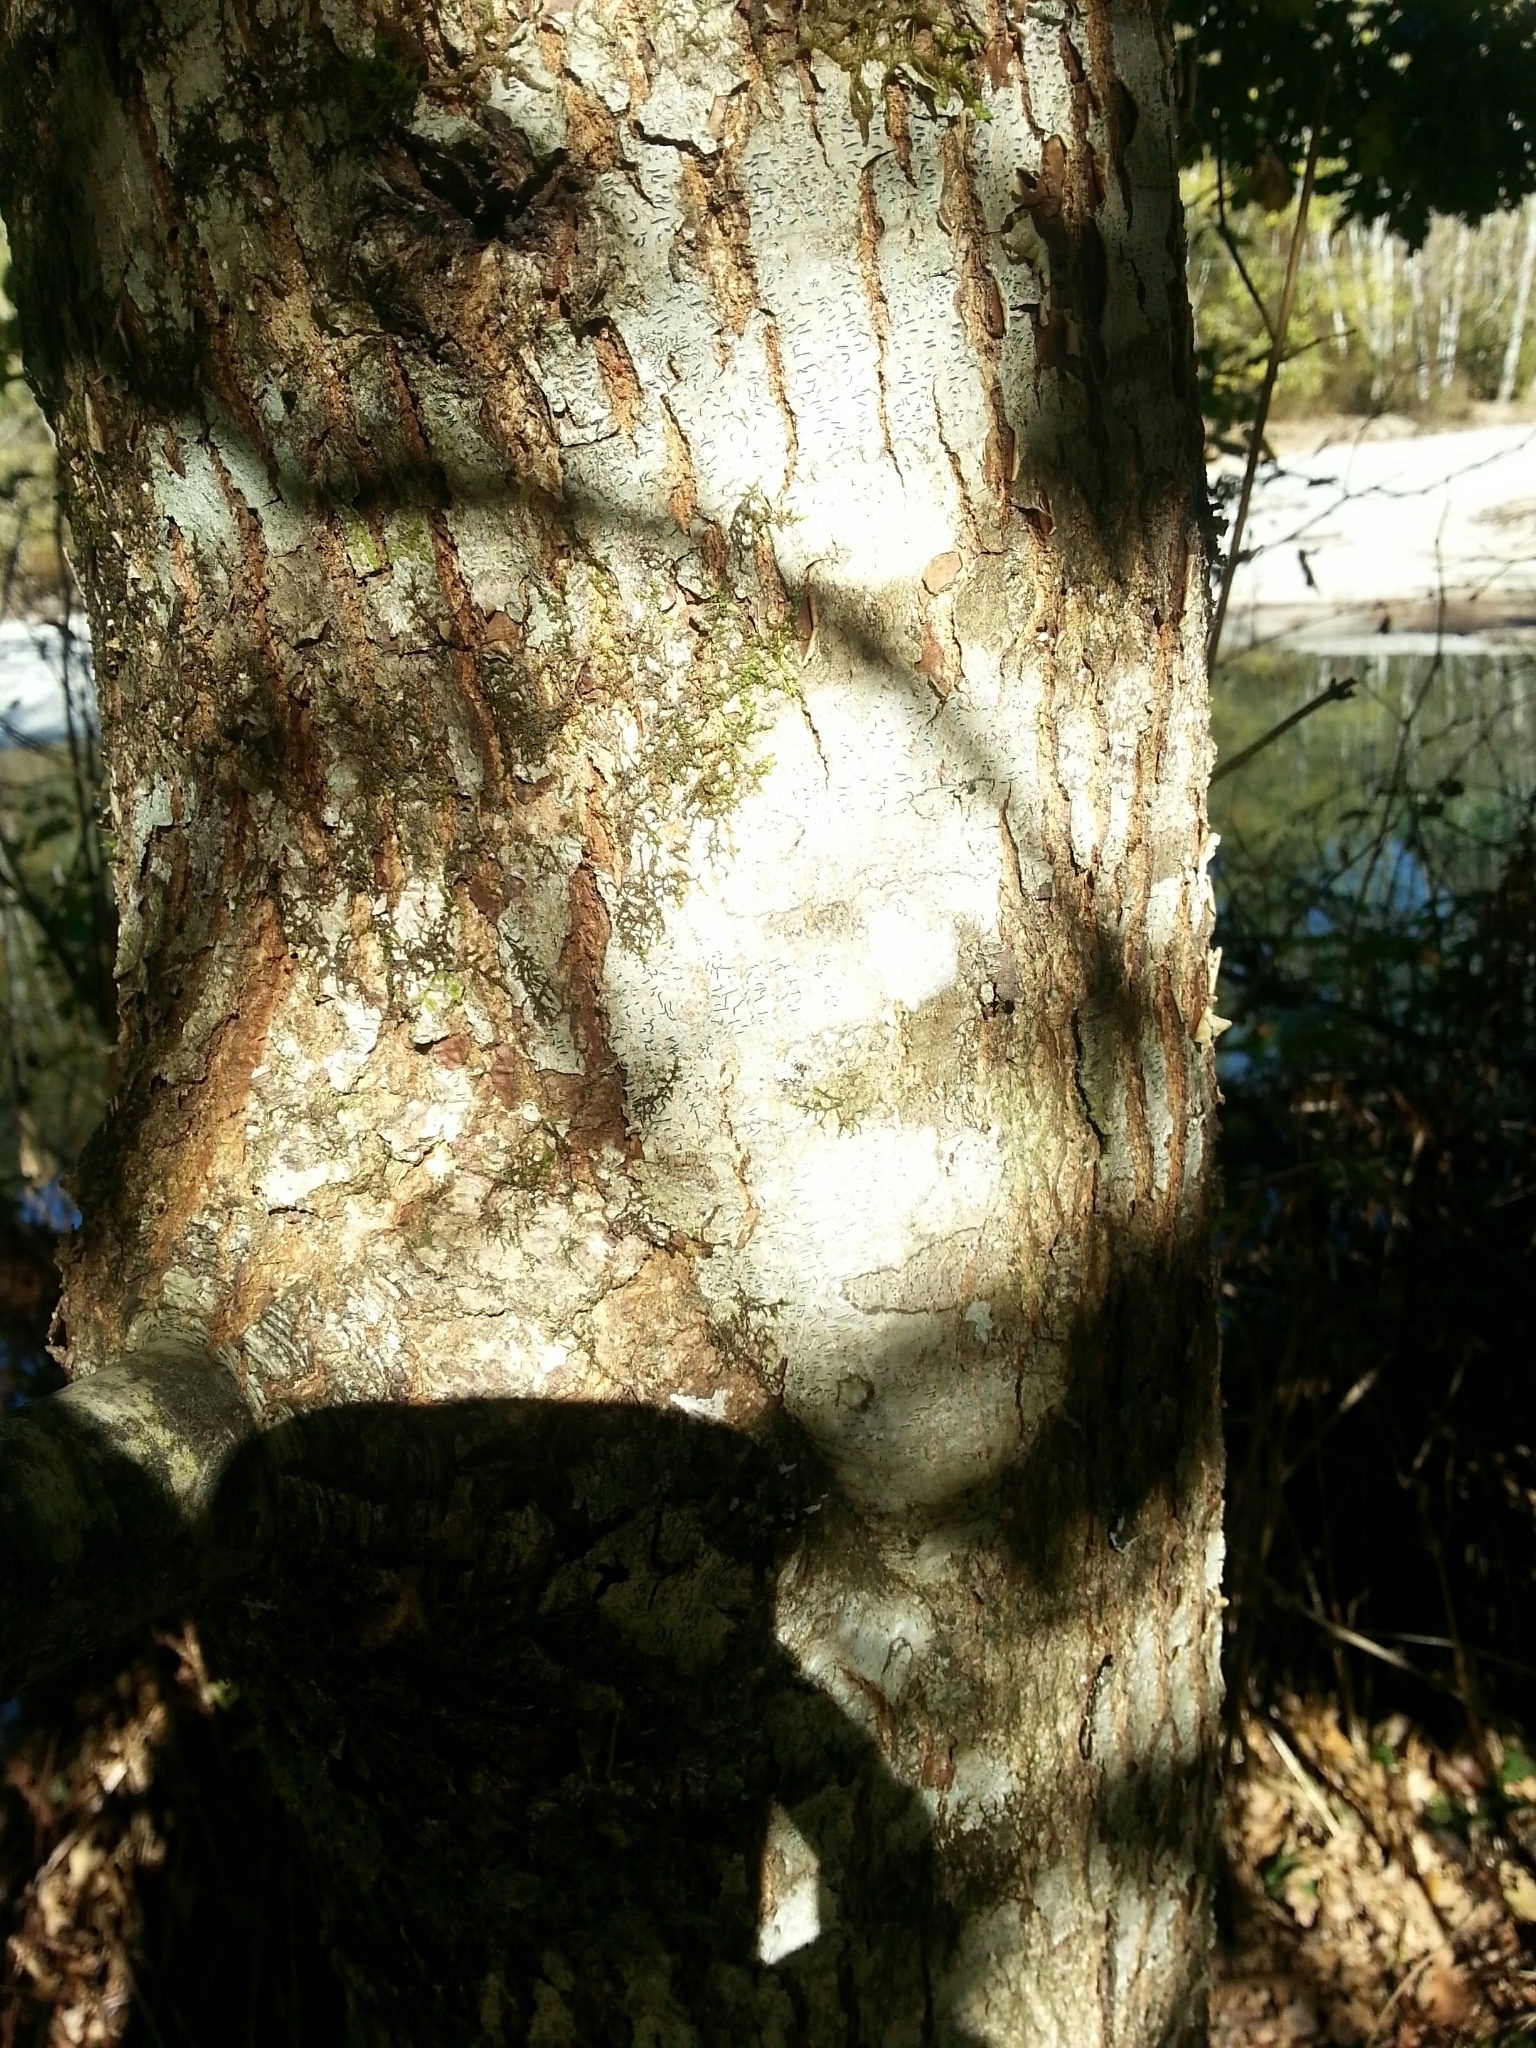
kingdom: Plantae
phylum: Tracheophyta
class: Magnoliopsida
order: Fagales
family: Fagaceae
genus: Quercus
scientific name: Quercus robur
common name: Pedunculate oak
